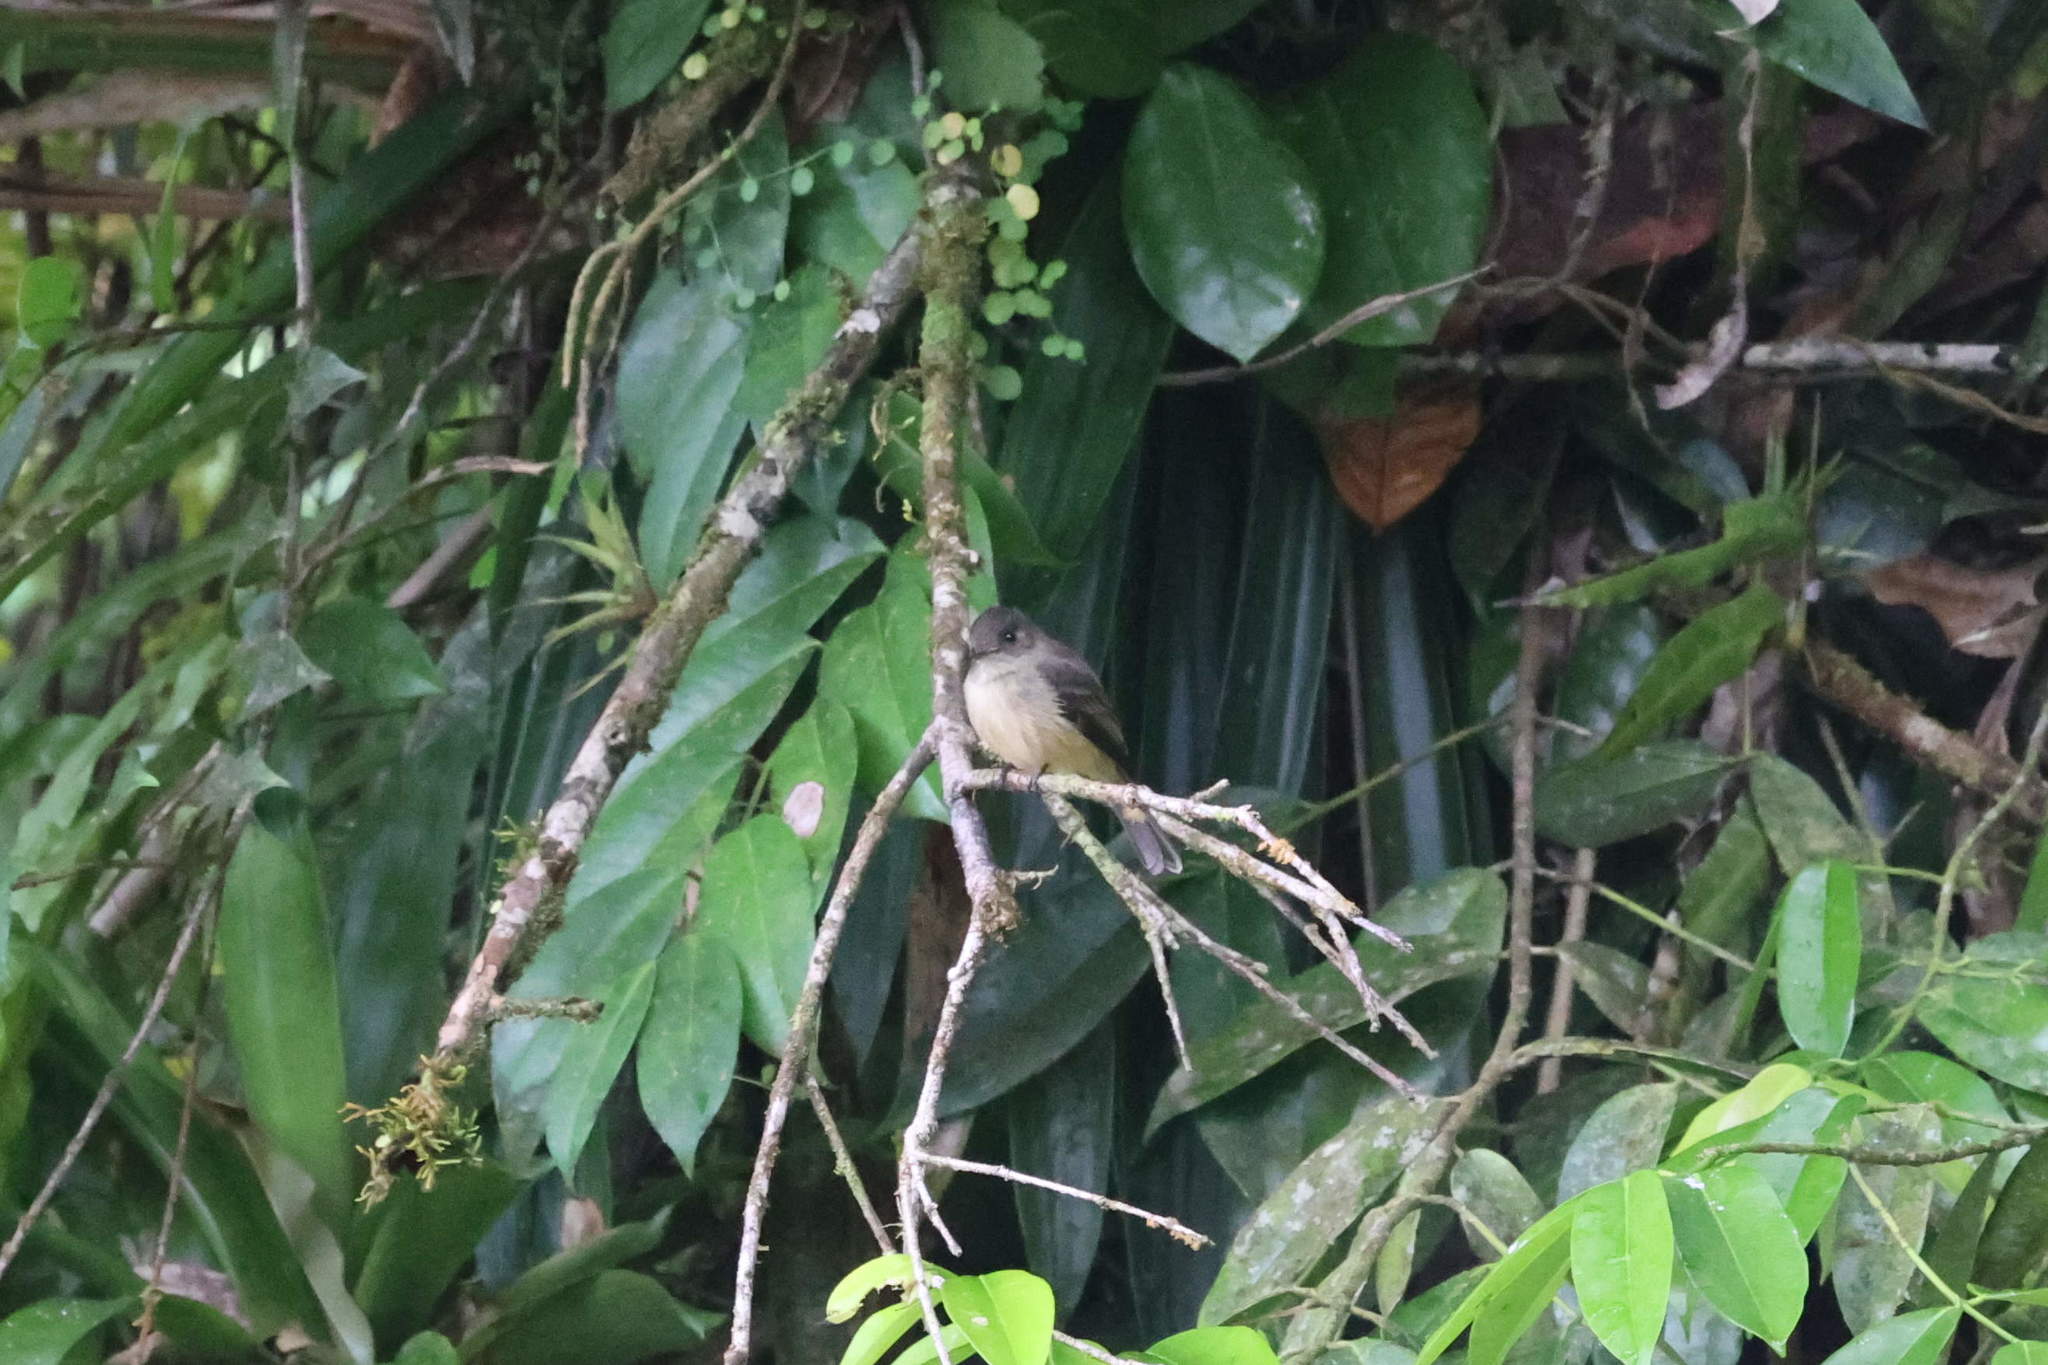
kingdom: Animalia
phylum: Chordata
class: Aves
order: Passeriformes
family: Tyrannidae
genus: Contopus
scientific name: Contopus latirostris
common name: Lesser antillean pewee
